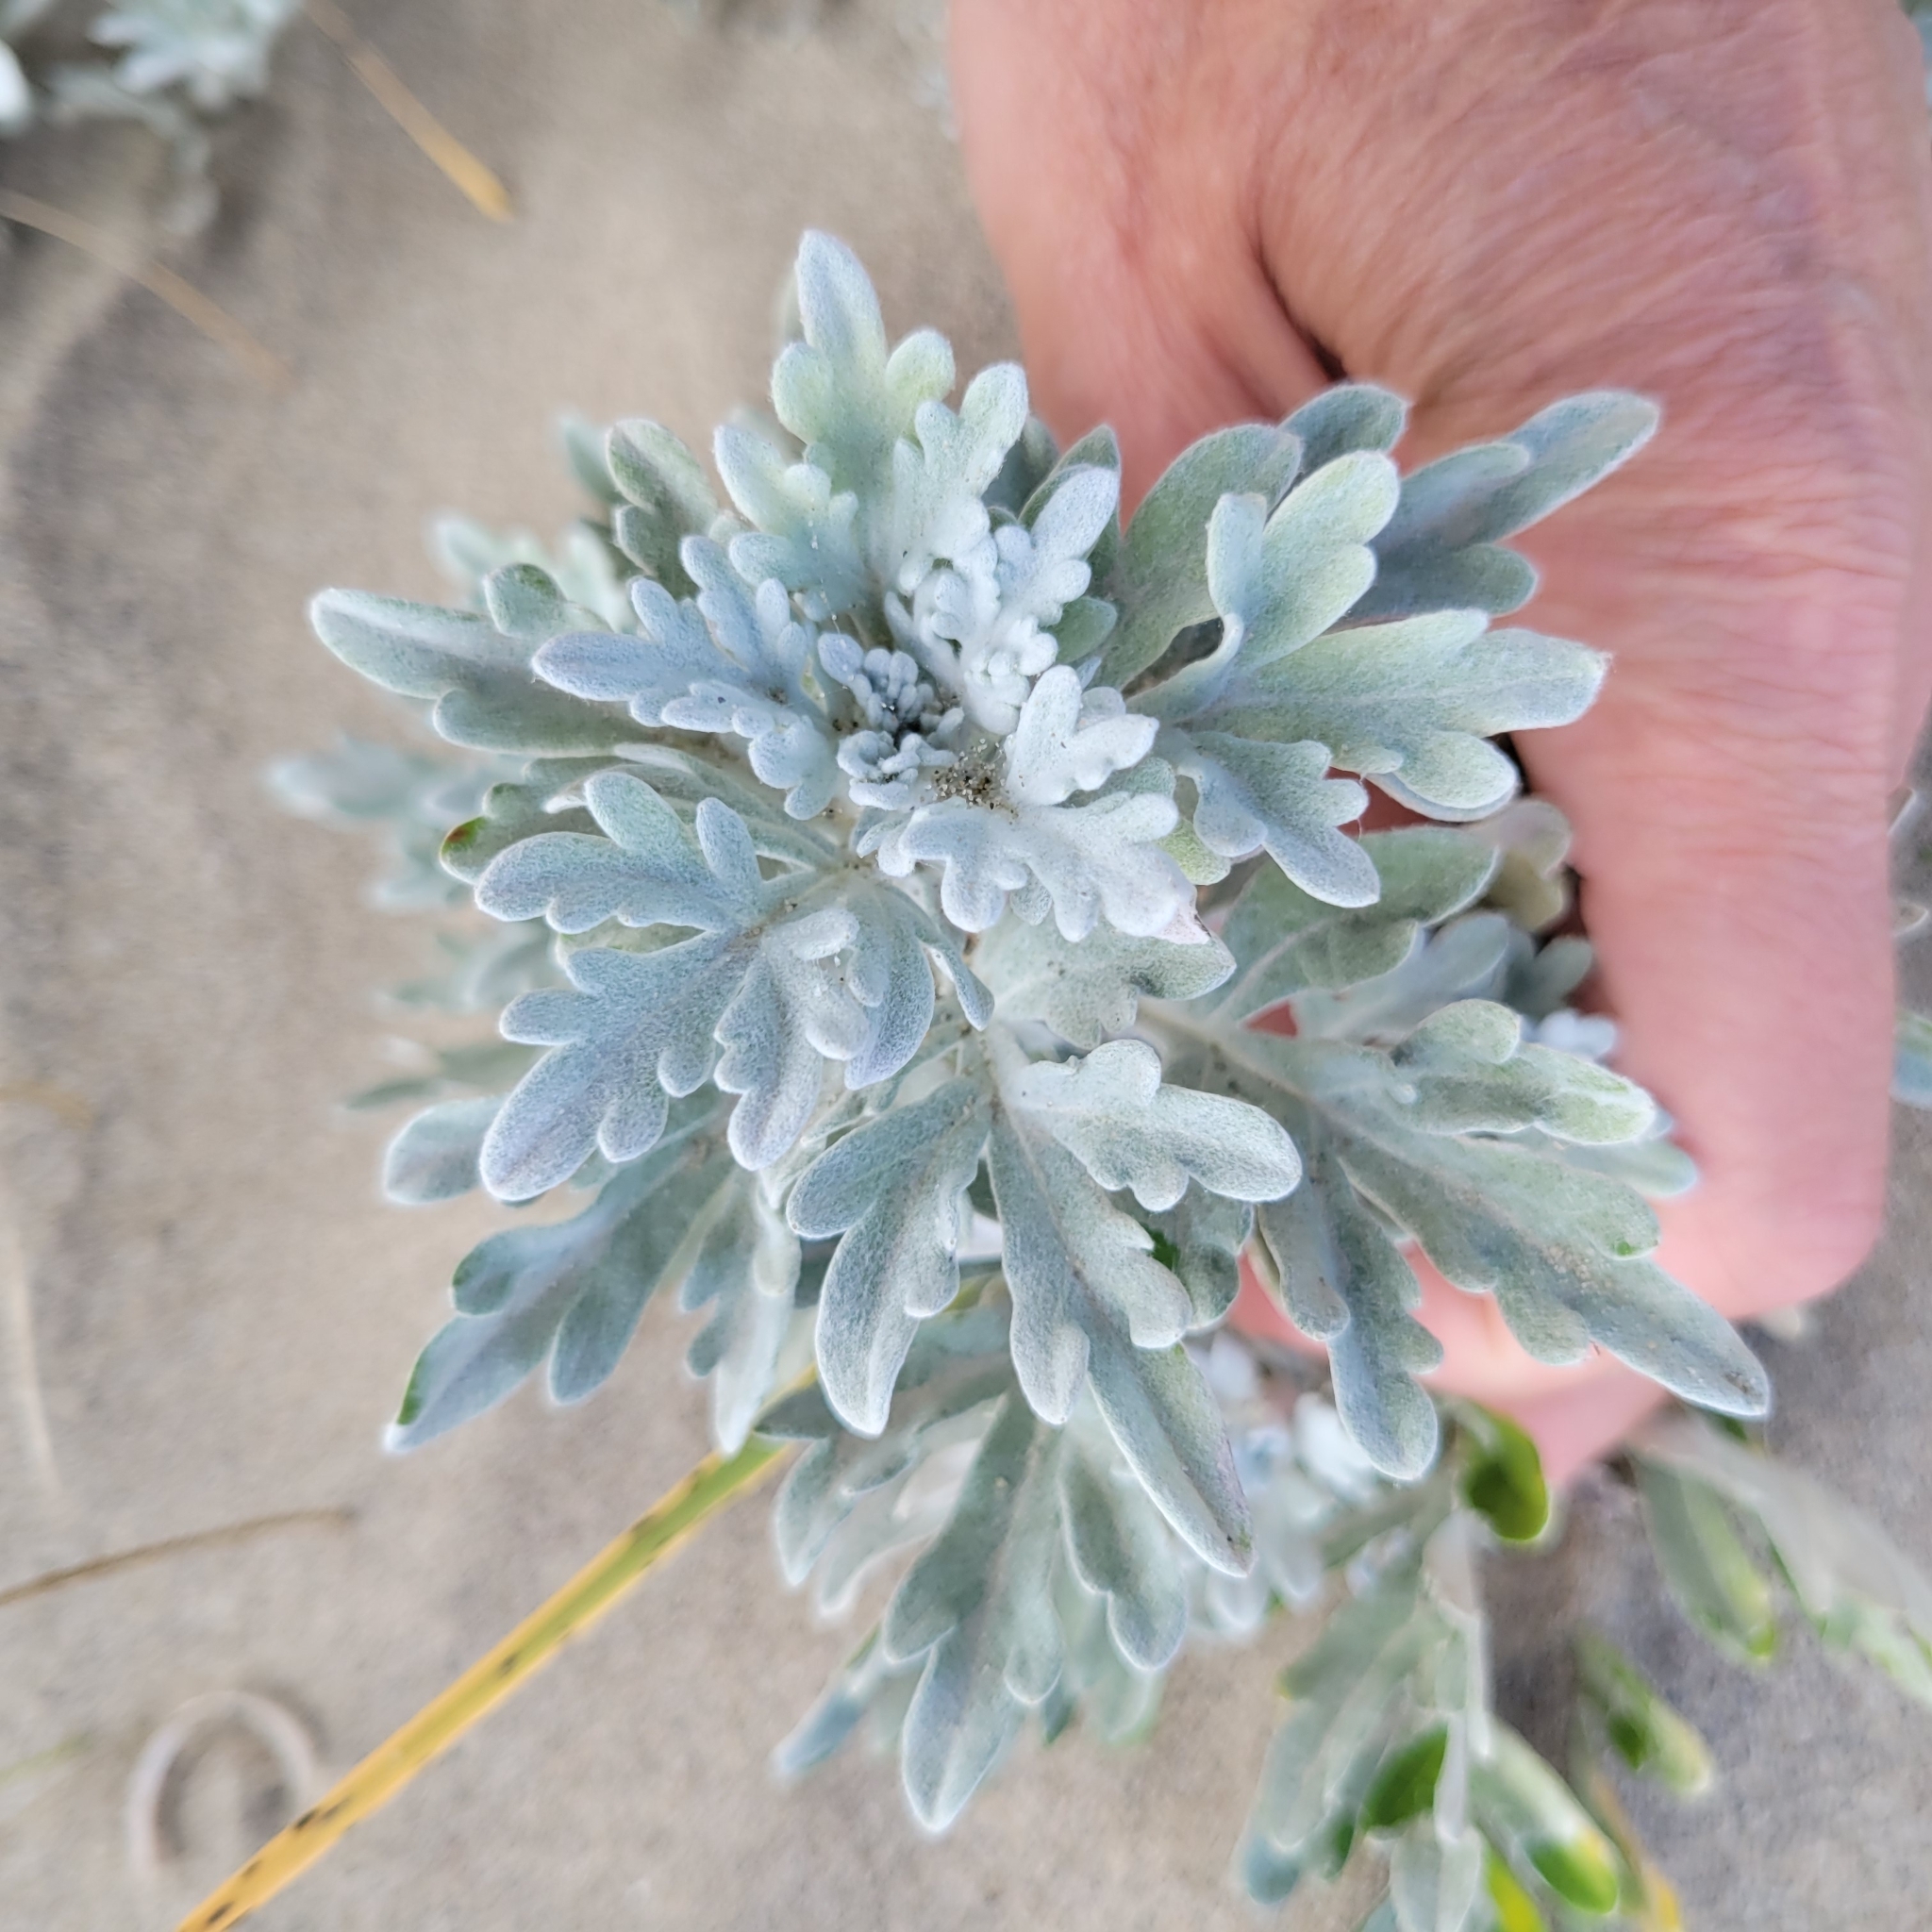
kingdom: Plantae
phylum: Tracheophyta
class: Magnoliopsida
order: Asterales
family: Asteraceae
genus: Artemisia
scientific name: Artemisia stelleriana
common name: Beach wormwood
